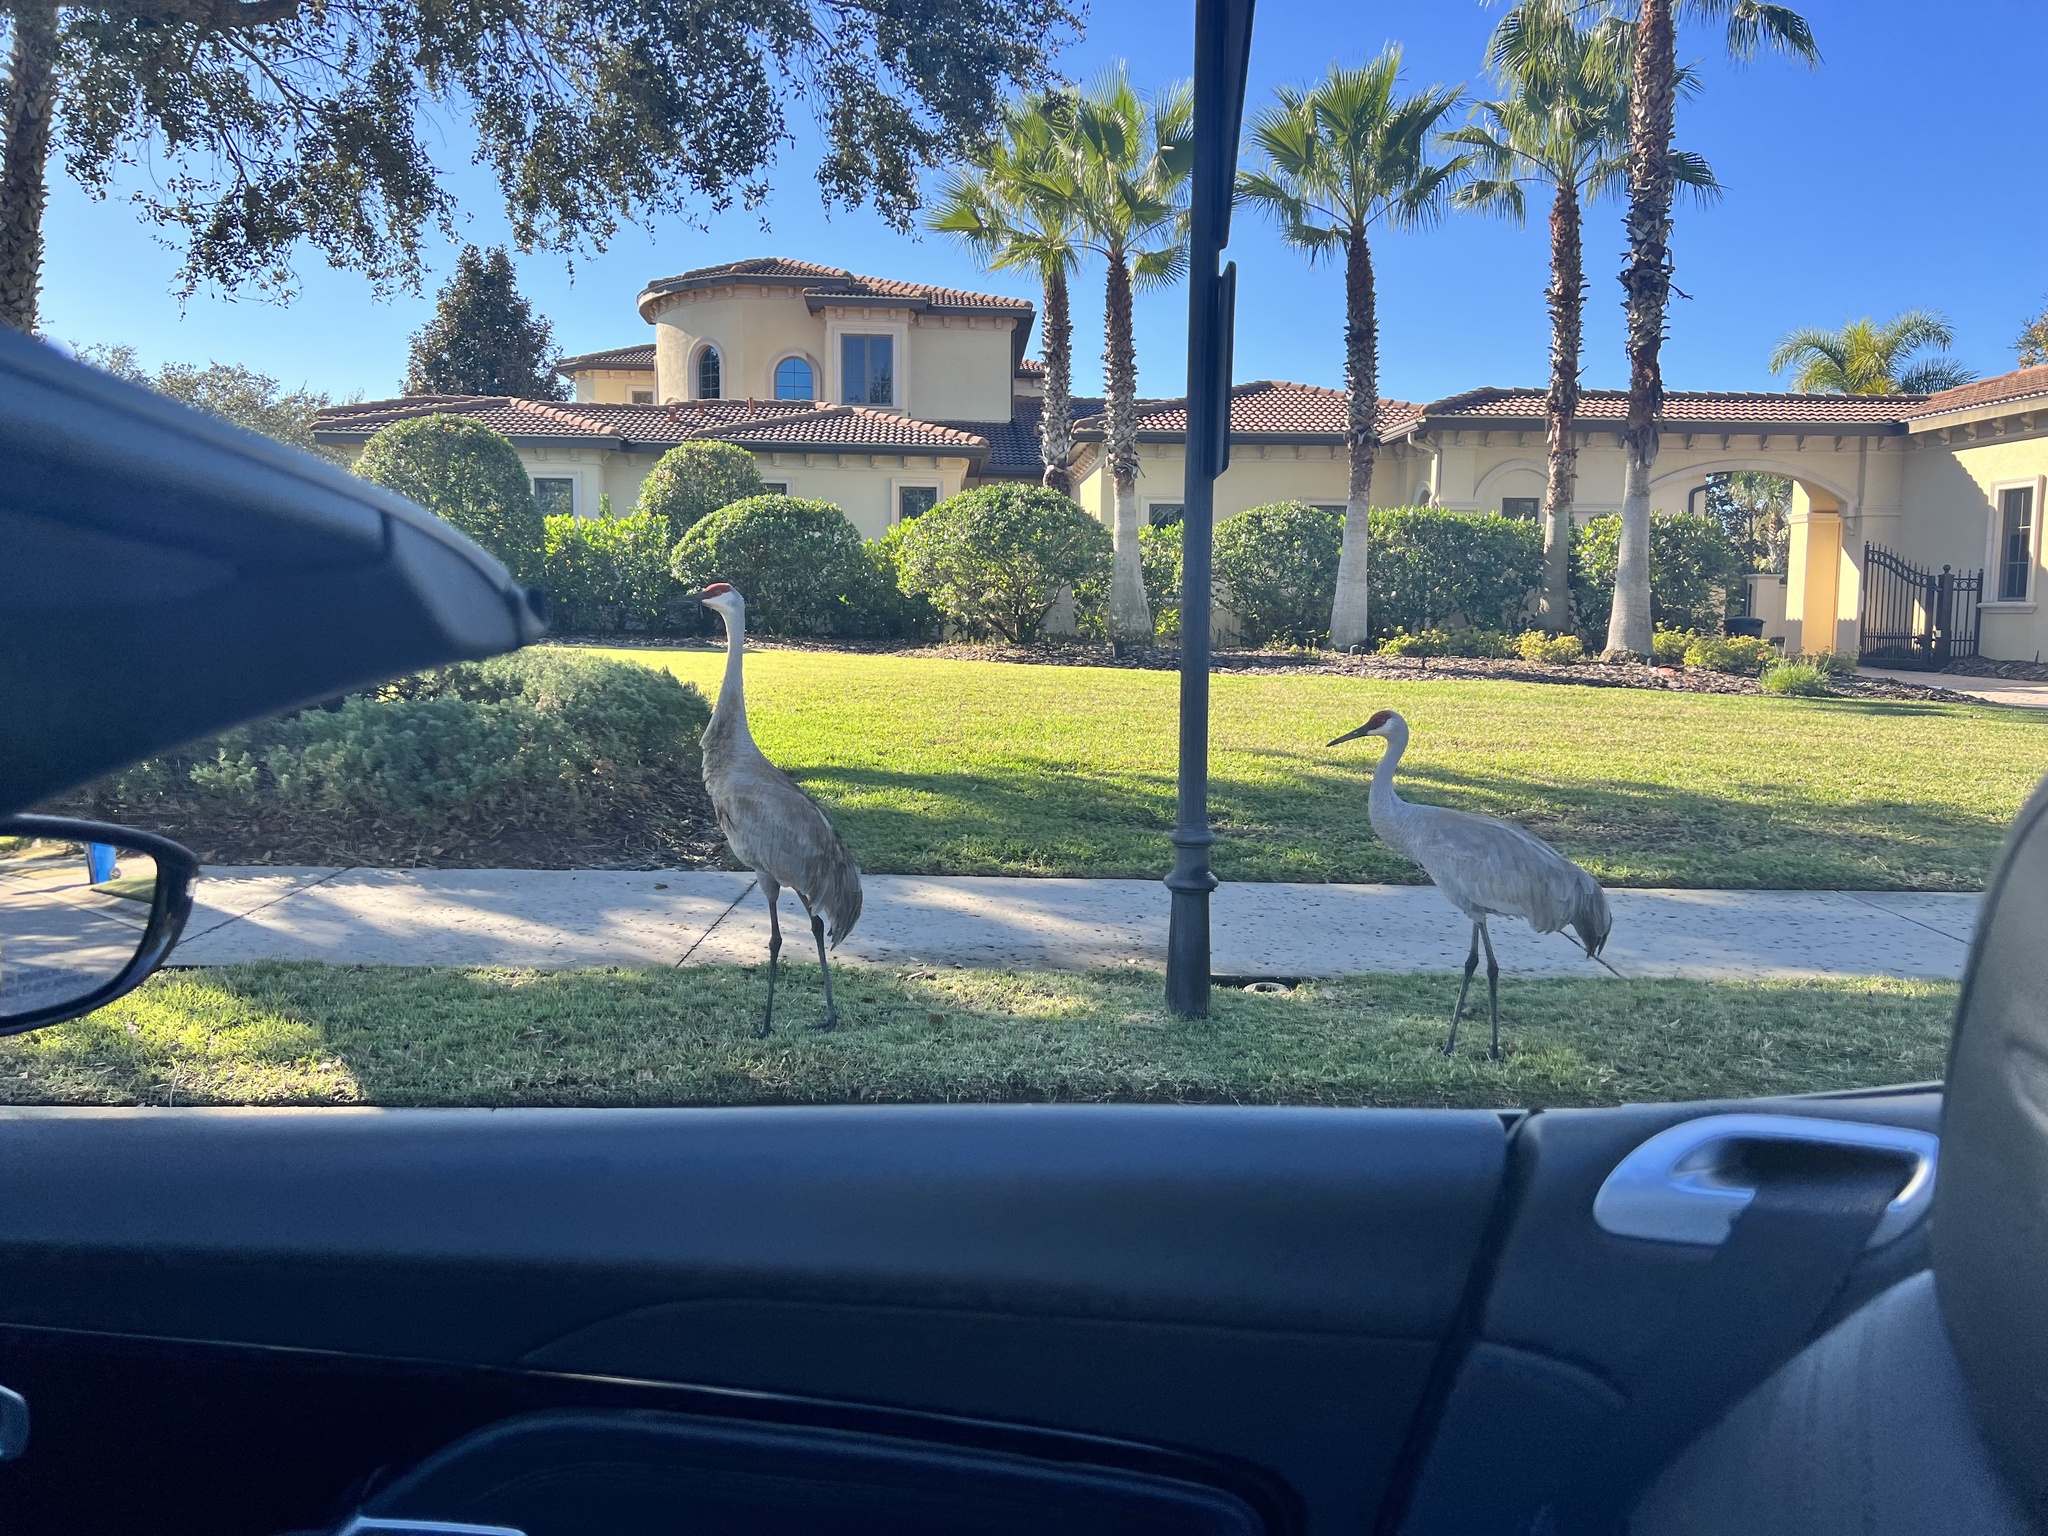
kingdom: Animalia
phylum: Chordata
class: Aves
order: Gruiformes
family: Gruidae
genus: Grus
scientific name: Grus canadensis
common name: Sandhill crane
